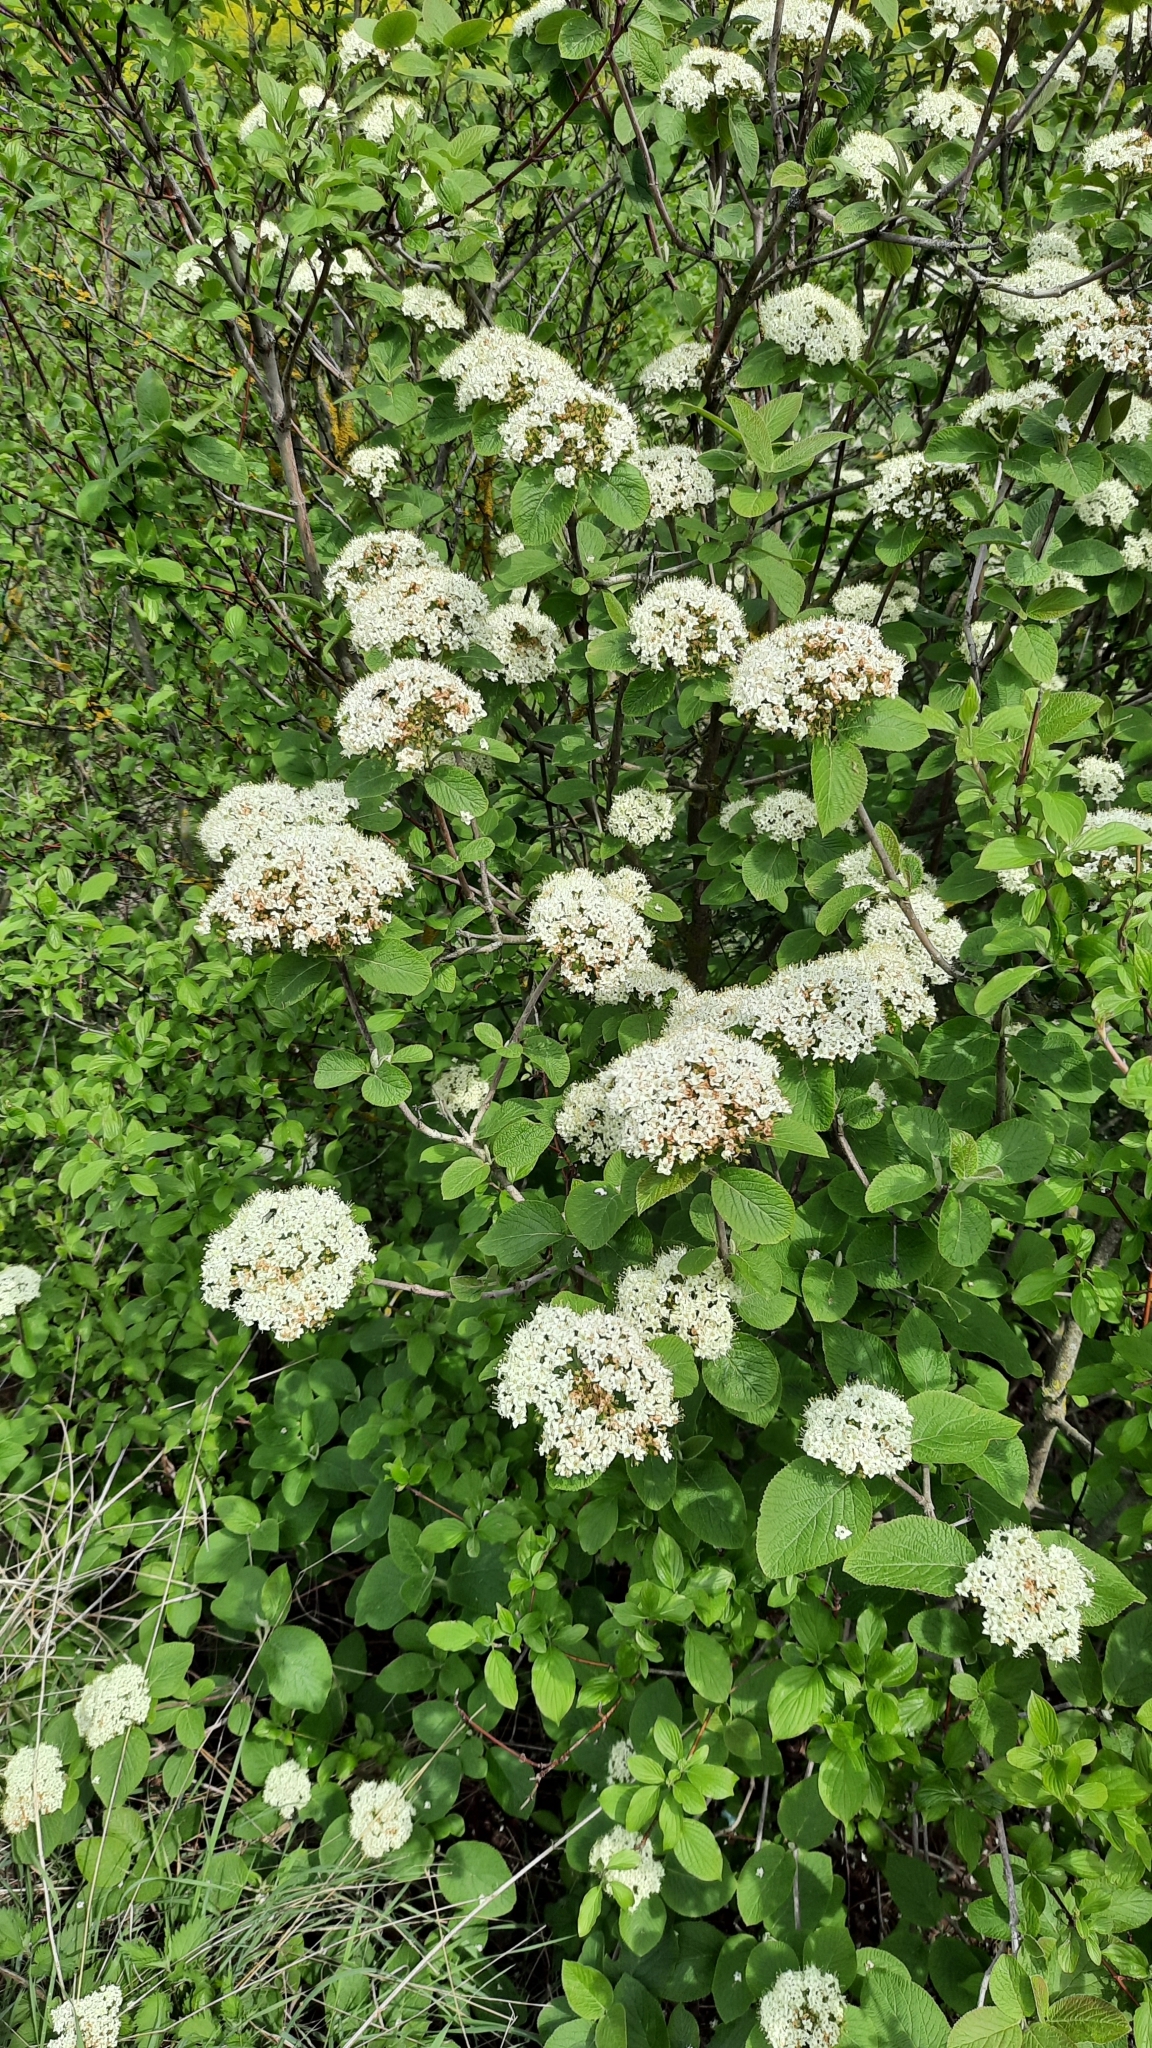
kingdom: Plantae
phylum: Tracheophyta
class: Magnoliopsida
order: Dipsacales
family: Viburnaceae
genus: Viburnum
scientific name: Viburnum lantana
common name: Wayfaring tree
